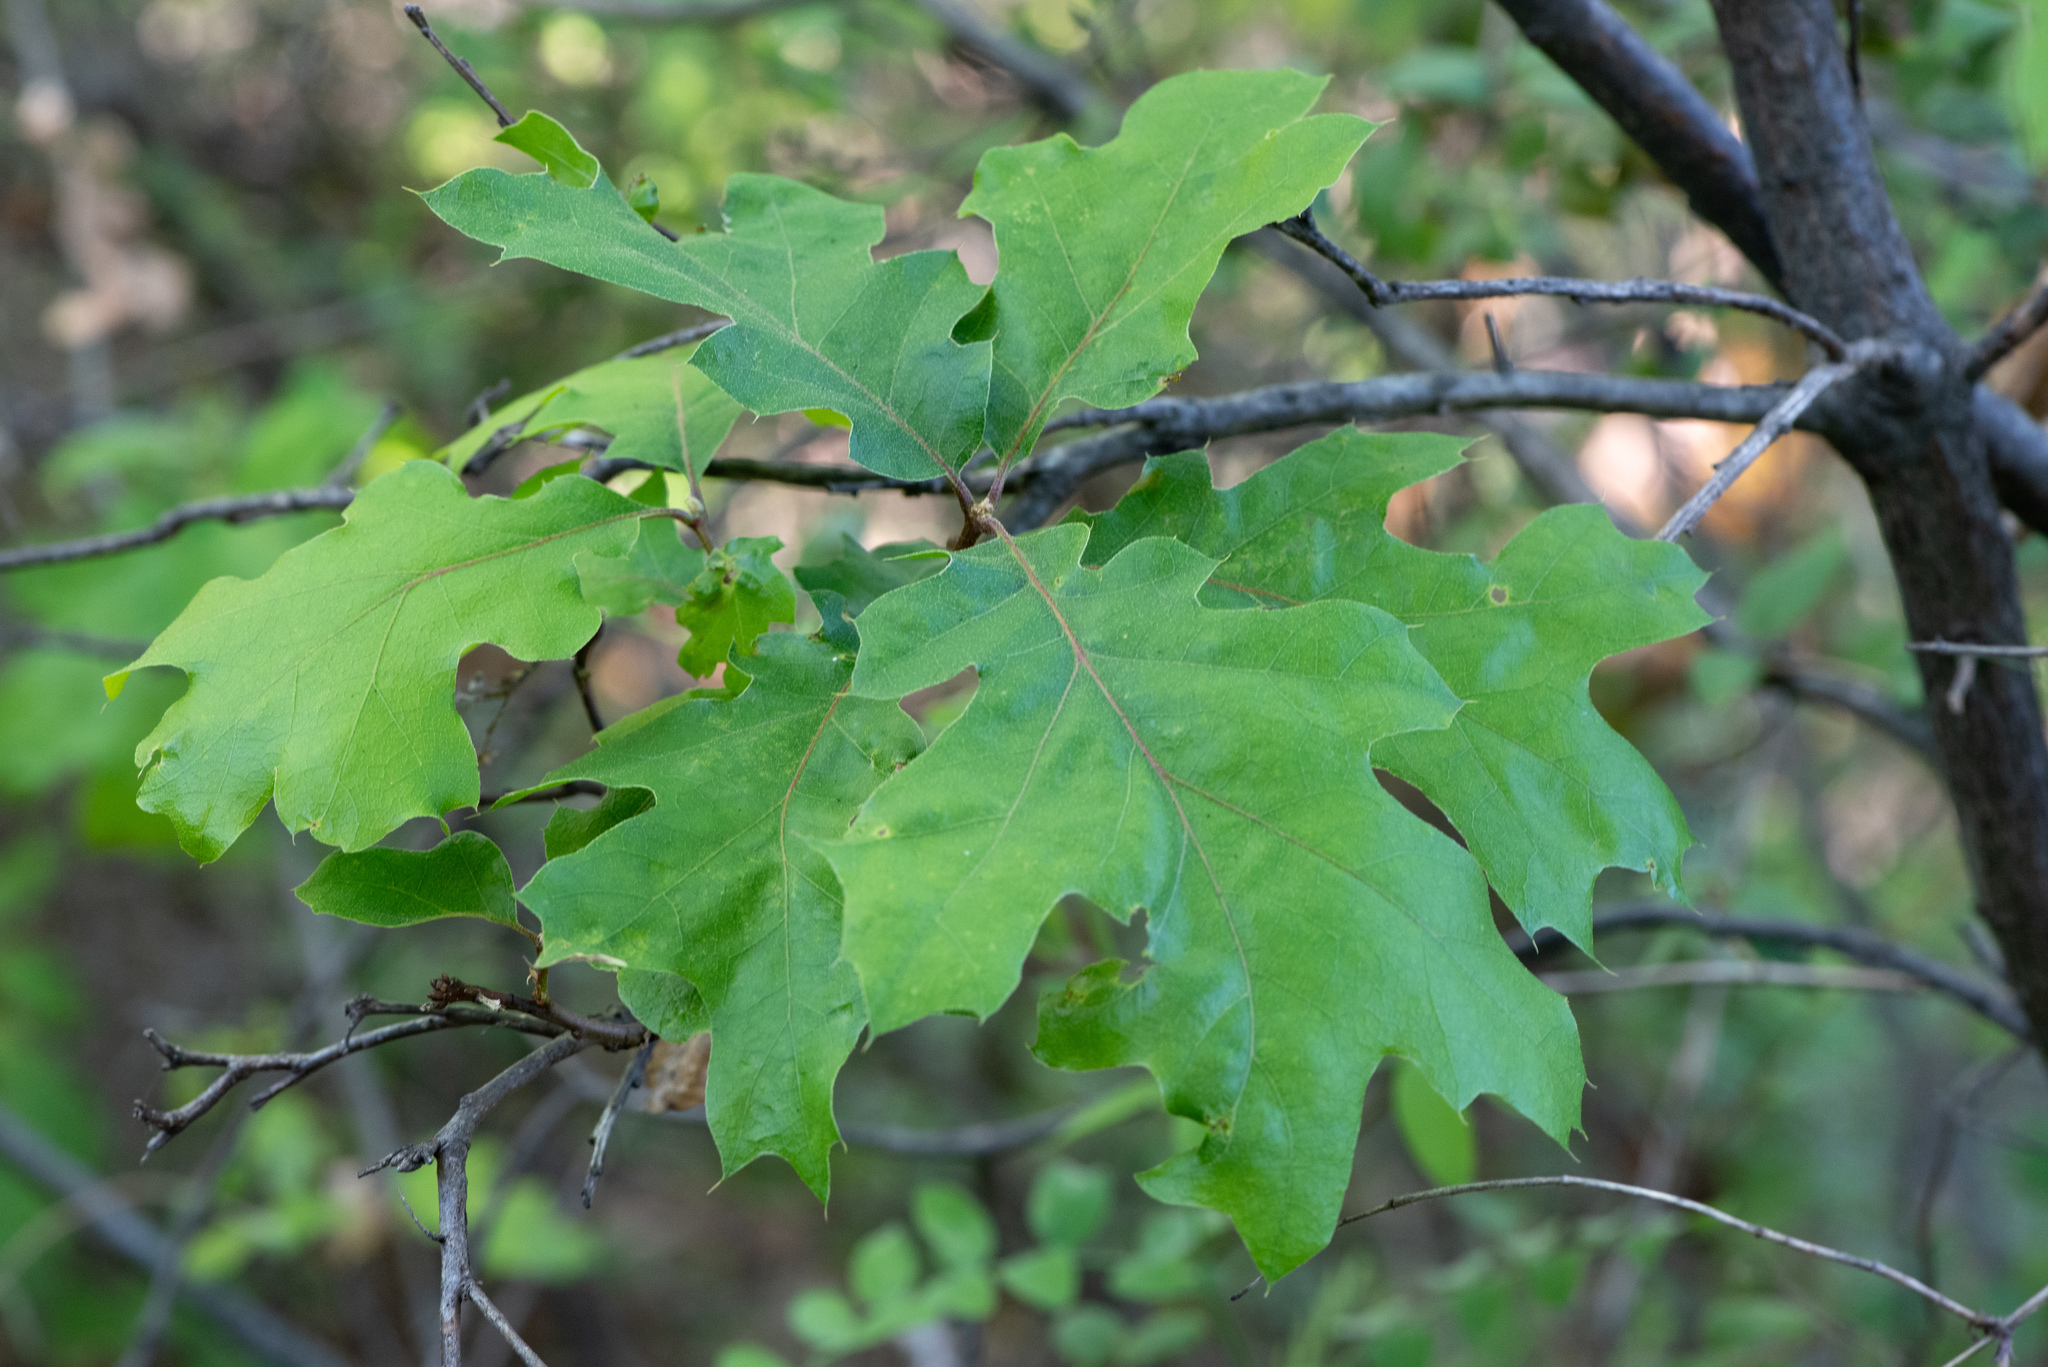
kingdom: Plantae
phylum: Tracheophyta
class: Magnoliopsida
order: Fagales
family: Fagaceae
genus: Quercus
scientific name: Quercus kelloggii
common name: California black oak
